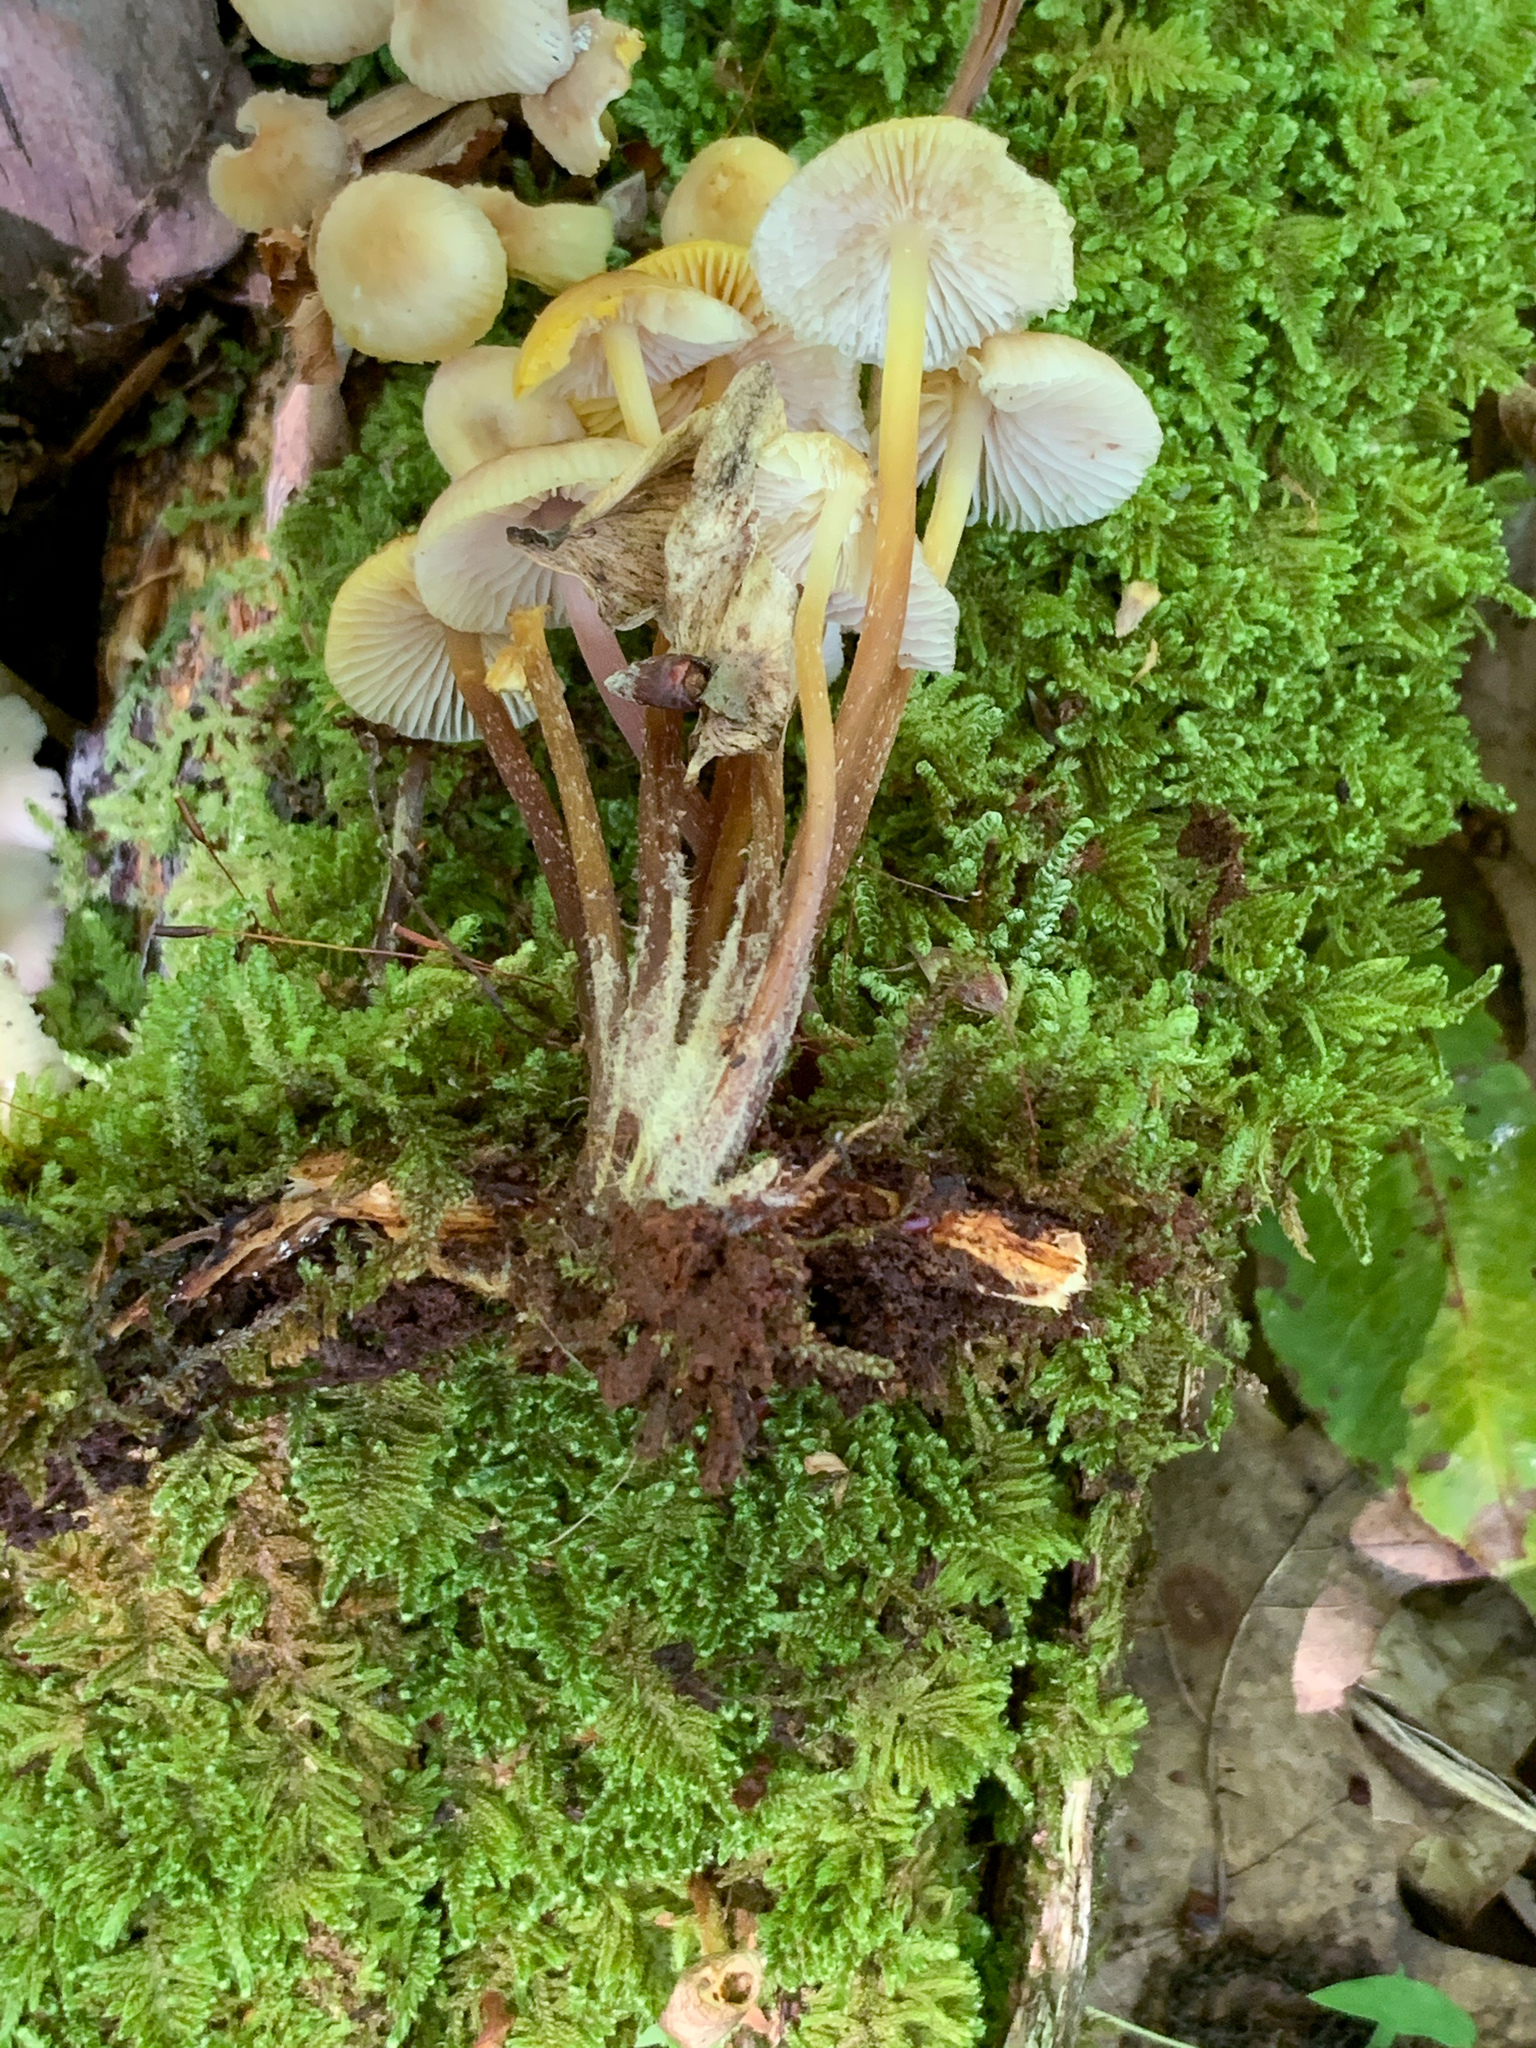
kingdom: Fungi
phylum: Basidiomycota
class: Agaricomycetes
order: Agaricales
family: Mycenaceae
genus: Mycena
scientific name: Mycena inclinata
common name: Clustered bonnet
